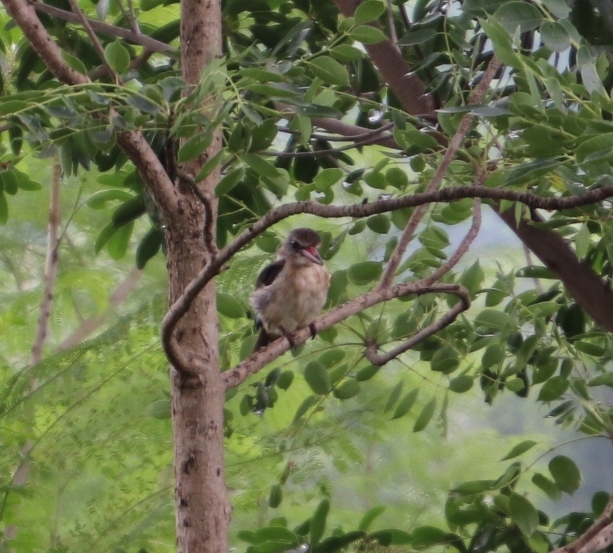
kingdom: Animalia
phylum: Chordata
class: Aves
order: Coraciiformes
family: Alcedinidae
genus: Halcyon
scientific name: Halcyon albiventris
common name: Brown-hooded kingfisher
